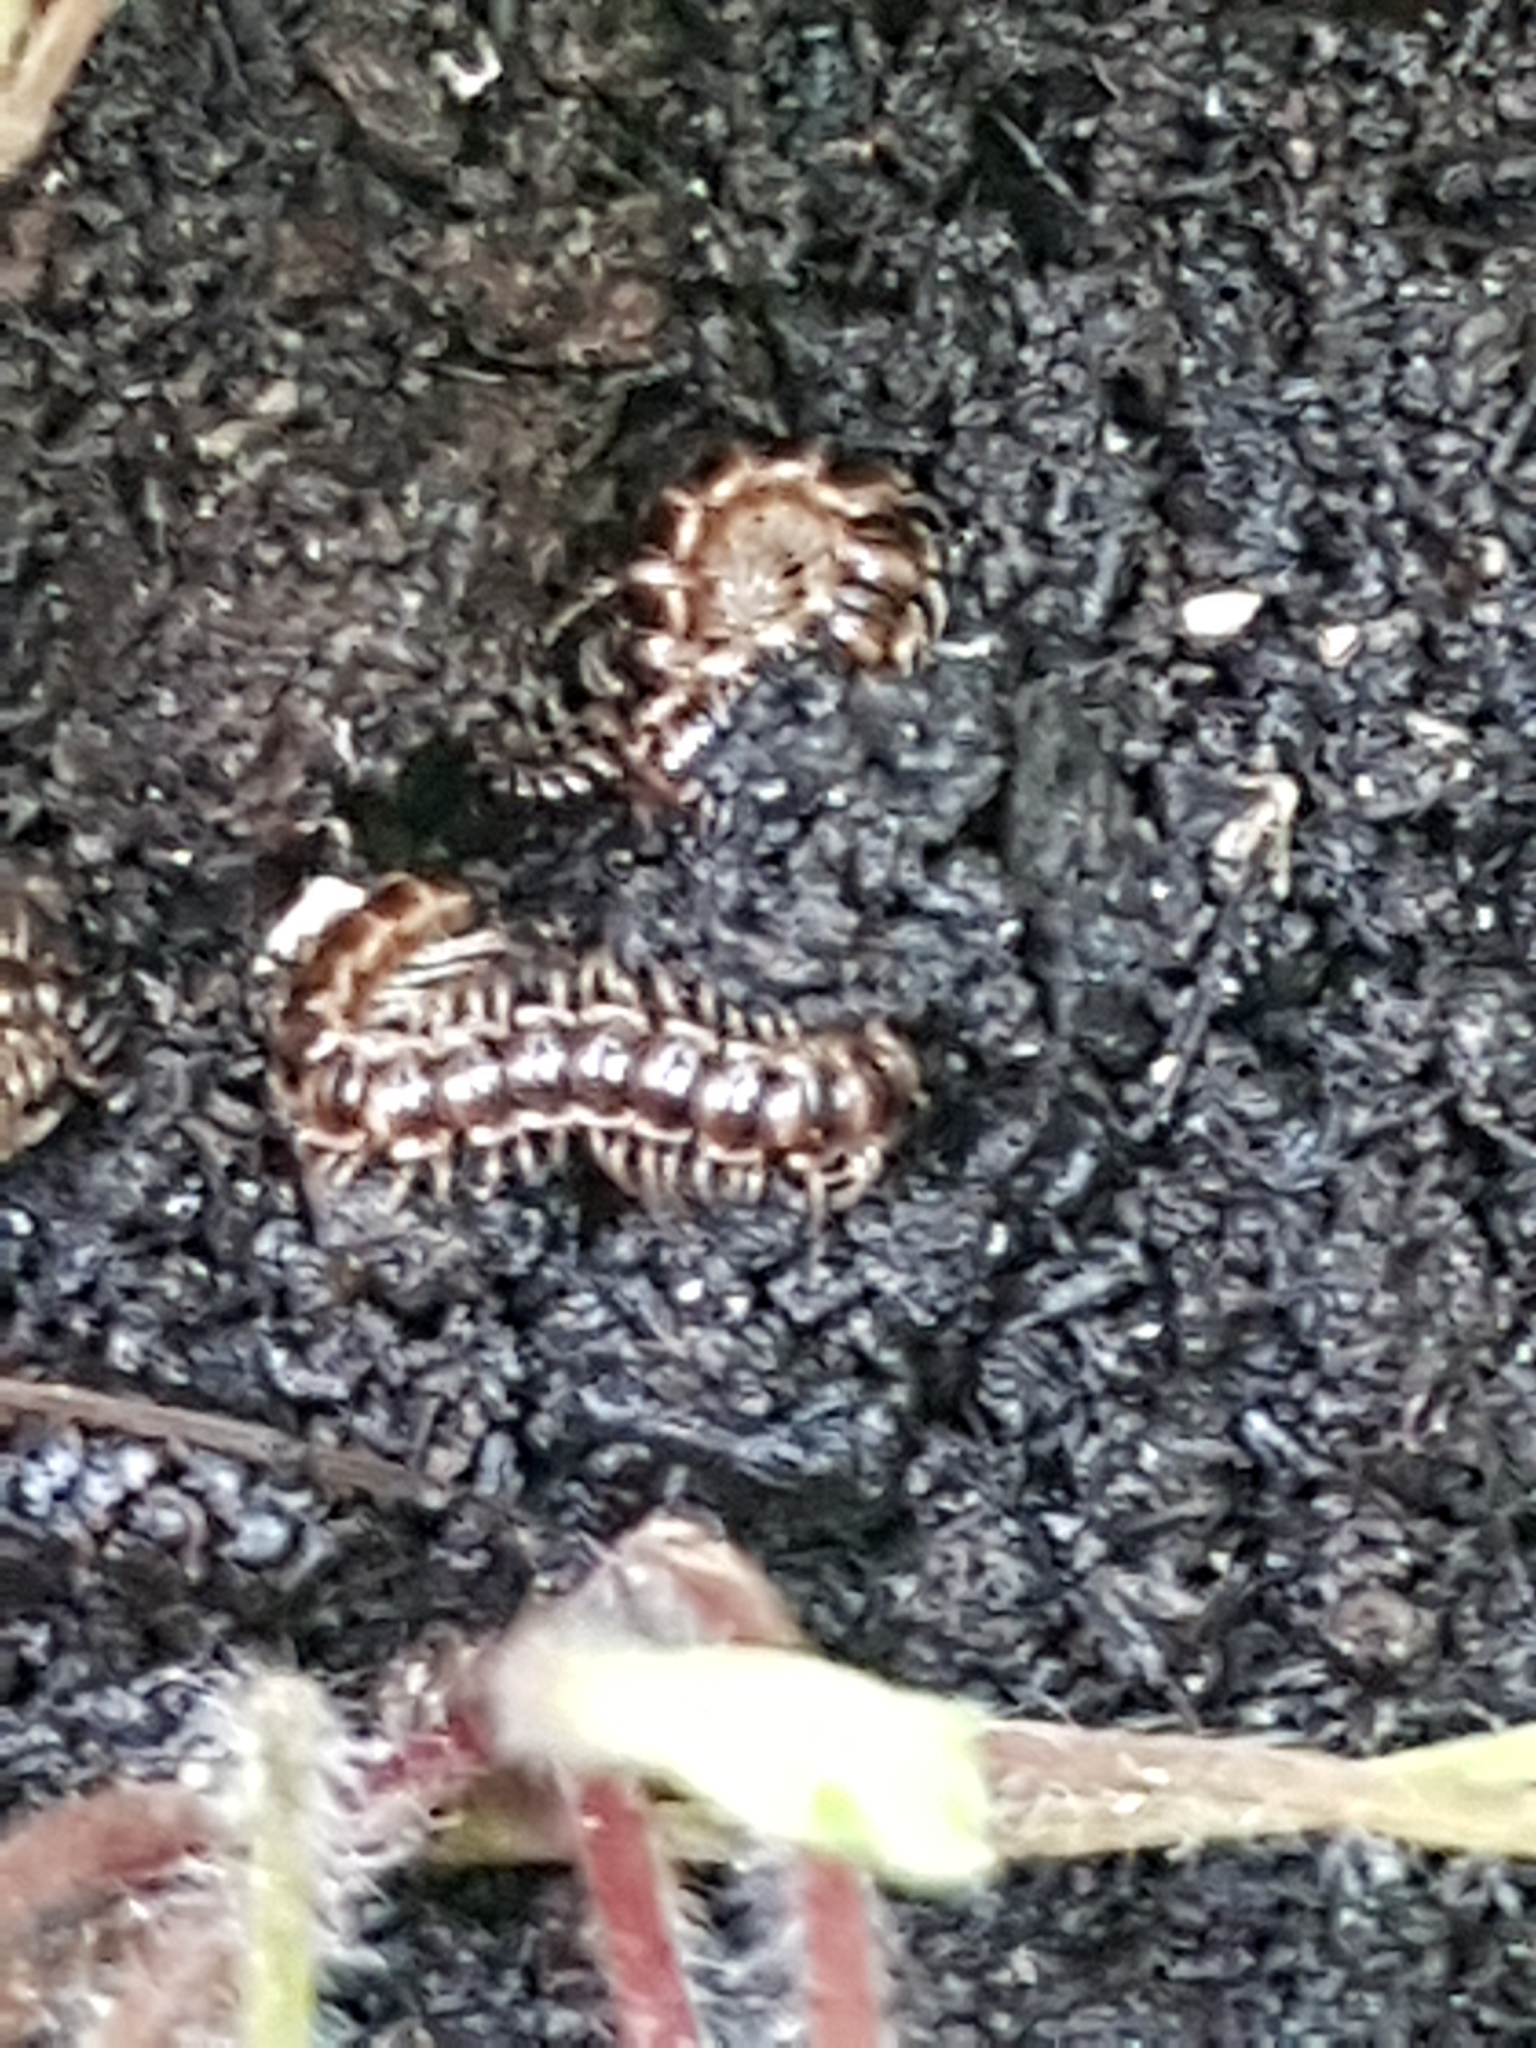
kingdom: Animalia
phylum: Arthropoda
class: Diplopoda
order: Polydesmida
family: Paradoxosomatidae
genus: Oxidus
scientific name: Oxidus gracilis
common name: Greenhouse millipede
